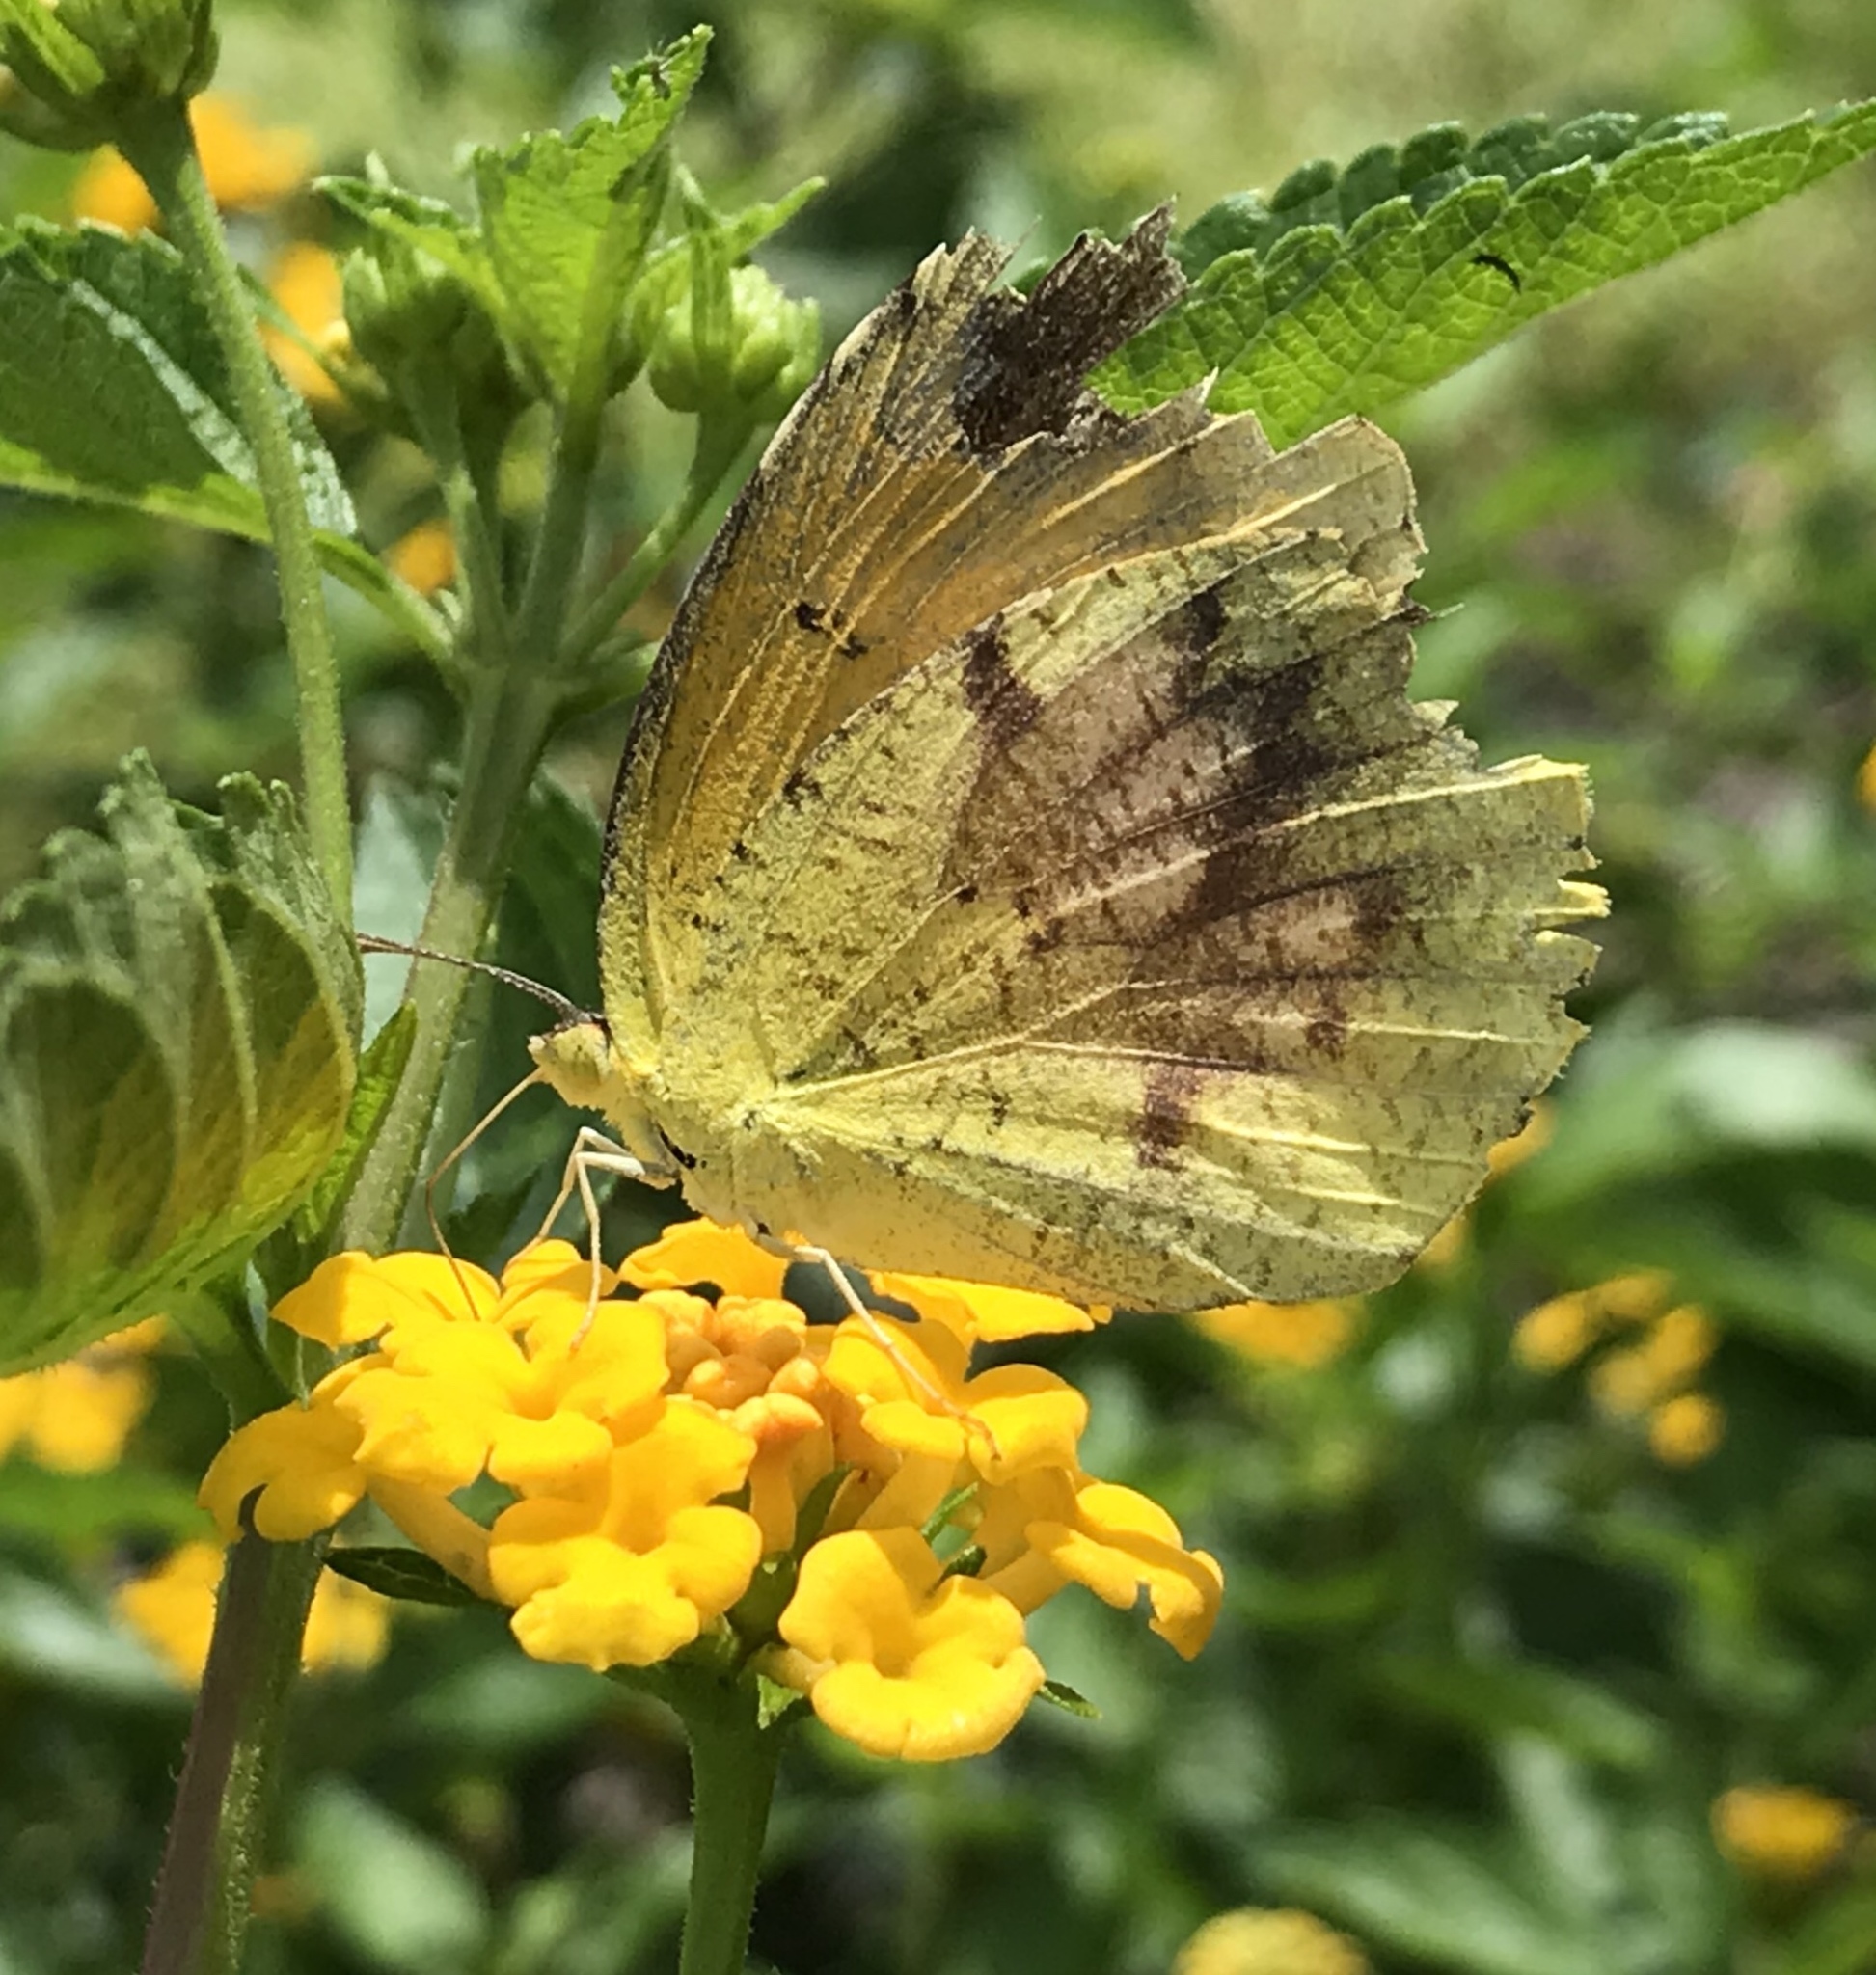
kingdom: Animalia
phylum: Arthropoda
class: Insecta
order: Lepidoptera
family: Pieridae
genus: Abaeis
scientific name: Abaeis nicippe
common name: Sleepy orange
